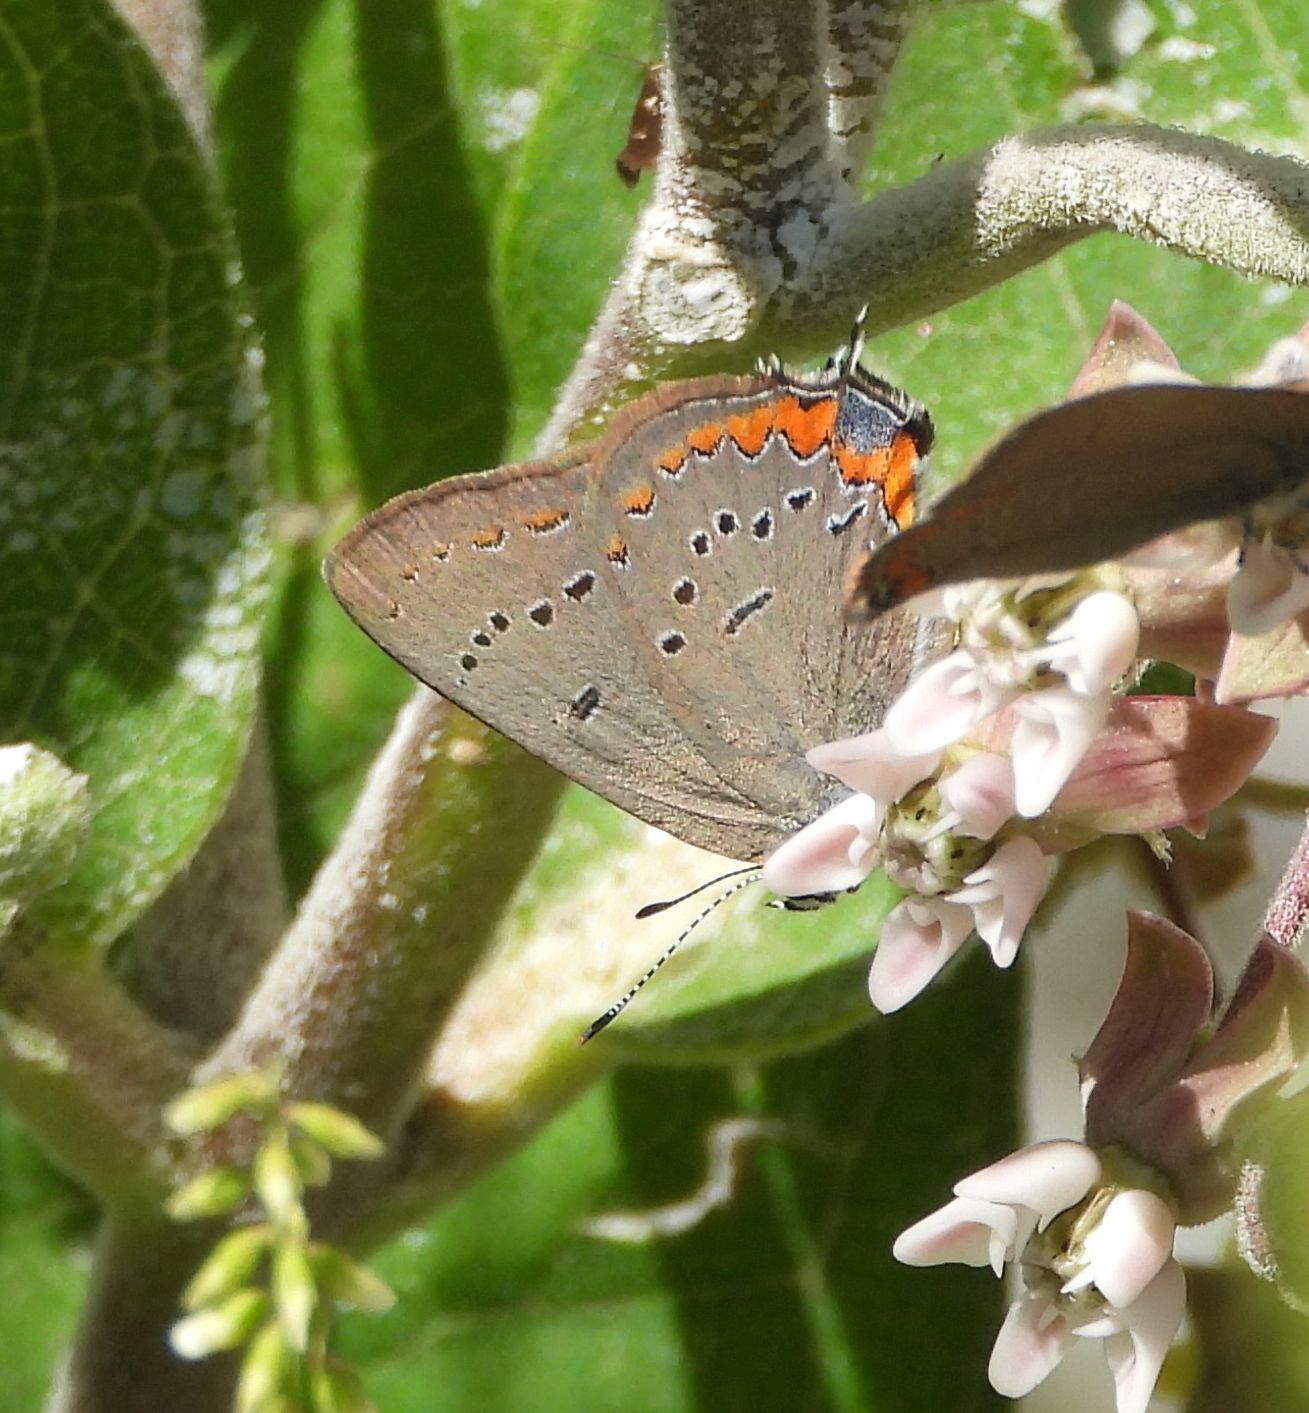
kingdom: Animalia
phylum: Arthropoda
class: Insecta
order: Lepidoptera
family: Lycaenidae
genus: Strymon
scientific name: Strymon acadica
